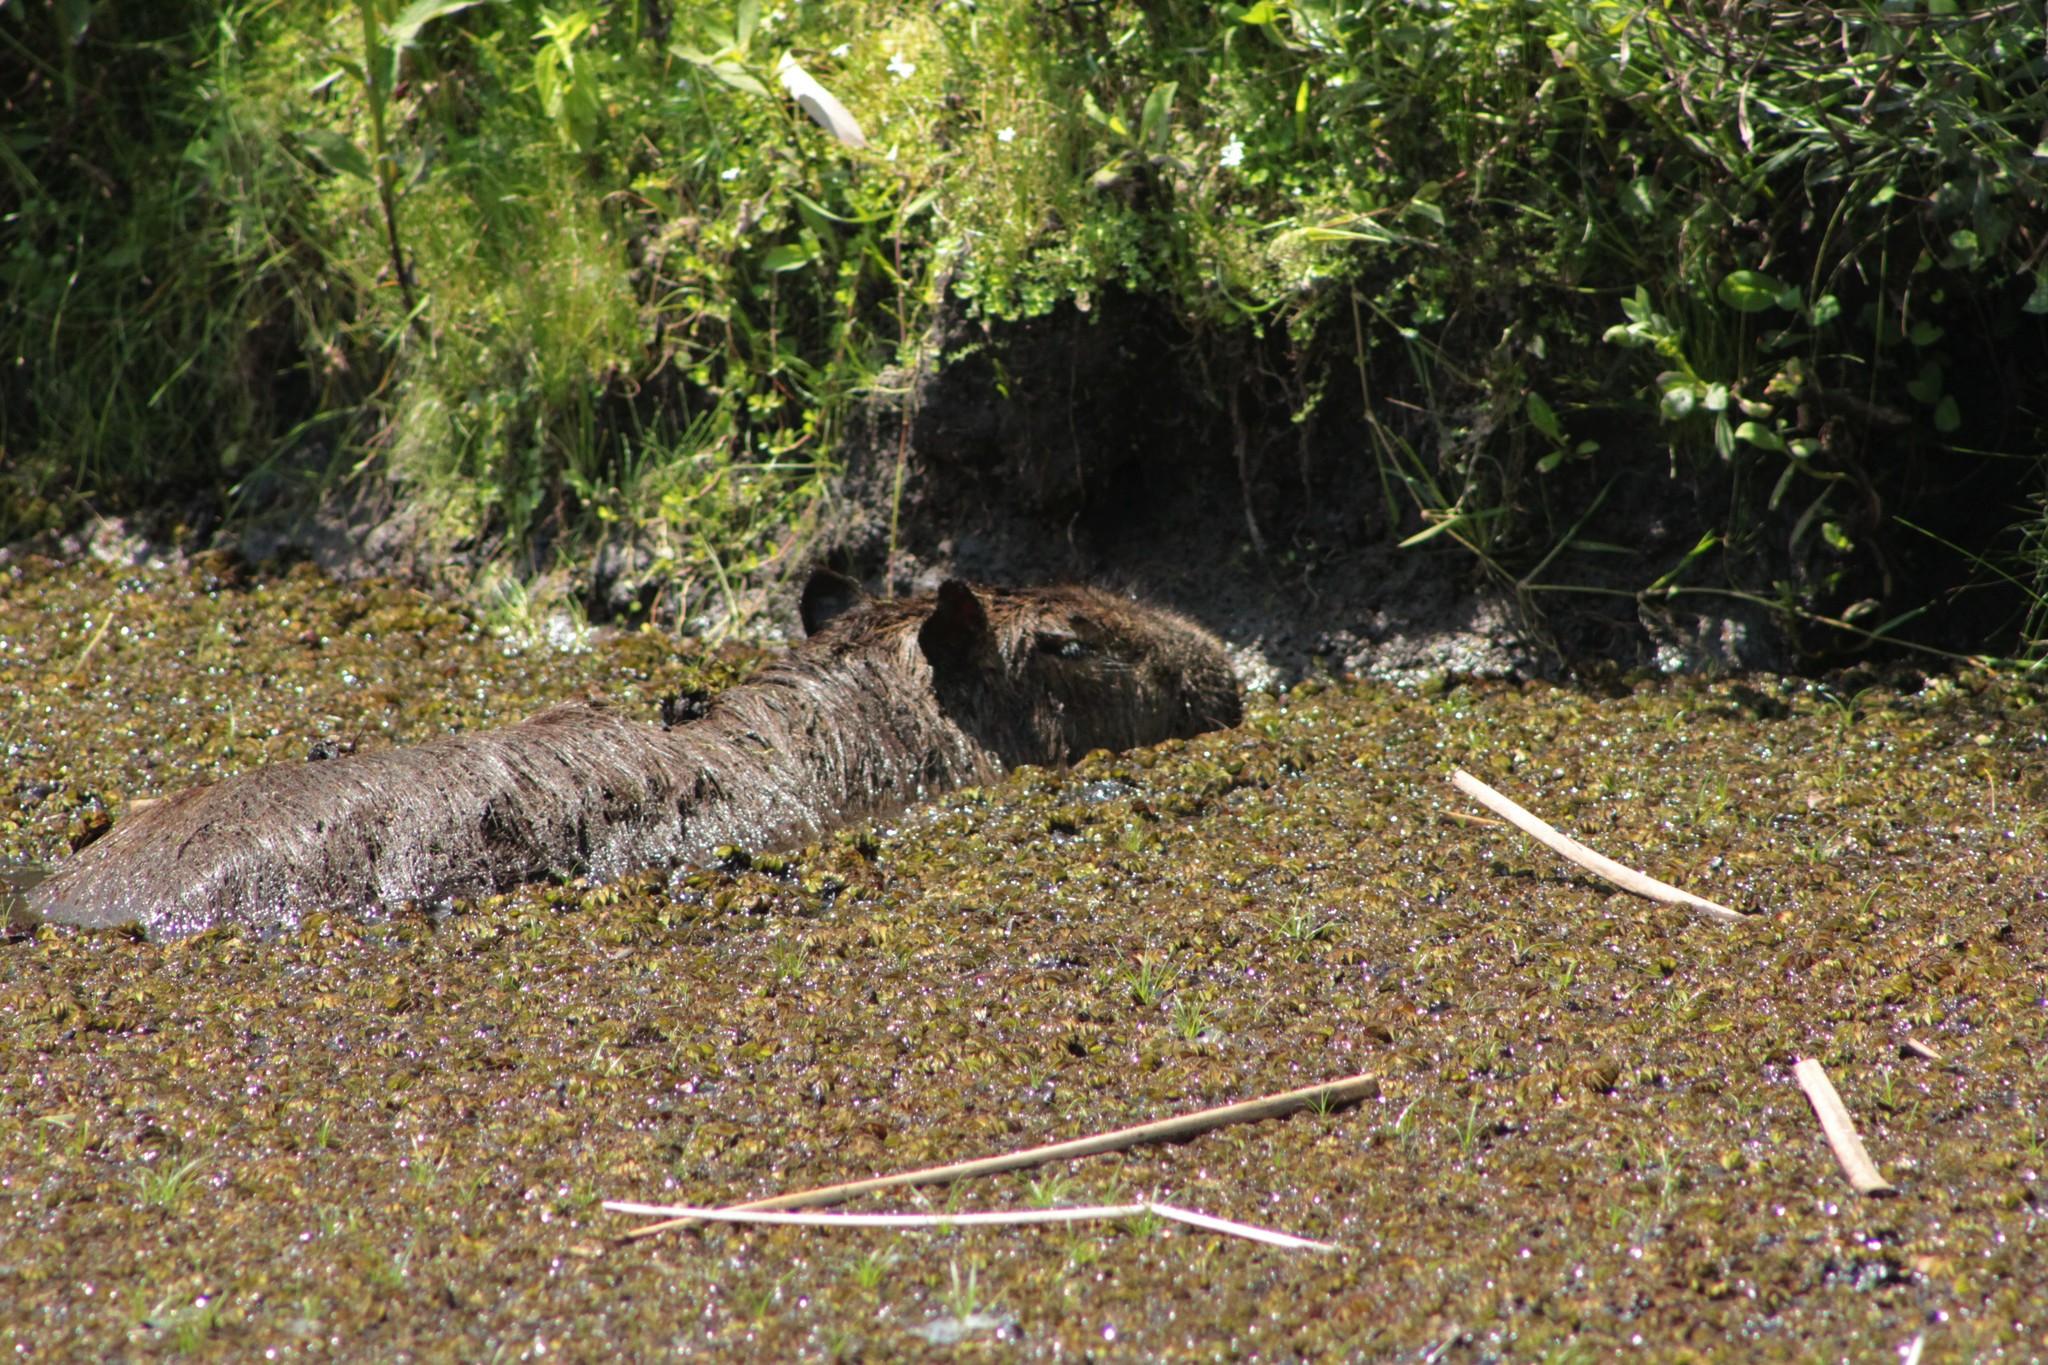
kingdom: Animalia
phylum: Chordata
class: Mammalia
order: Rodentia
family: Caviidae
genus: Hydrochoerus
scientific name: Hydrochoerus hydrochaeris
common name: Capybara
